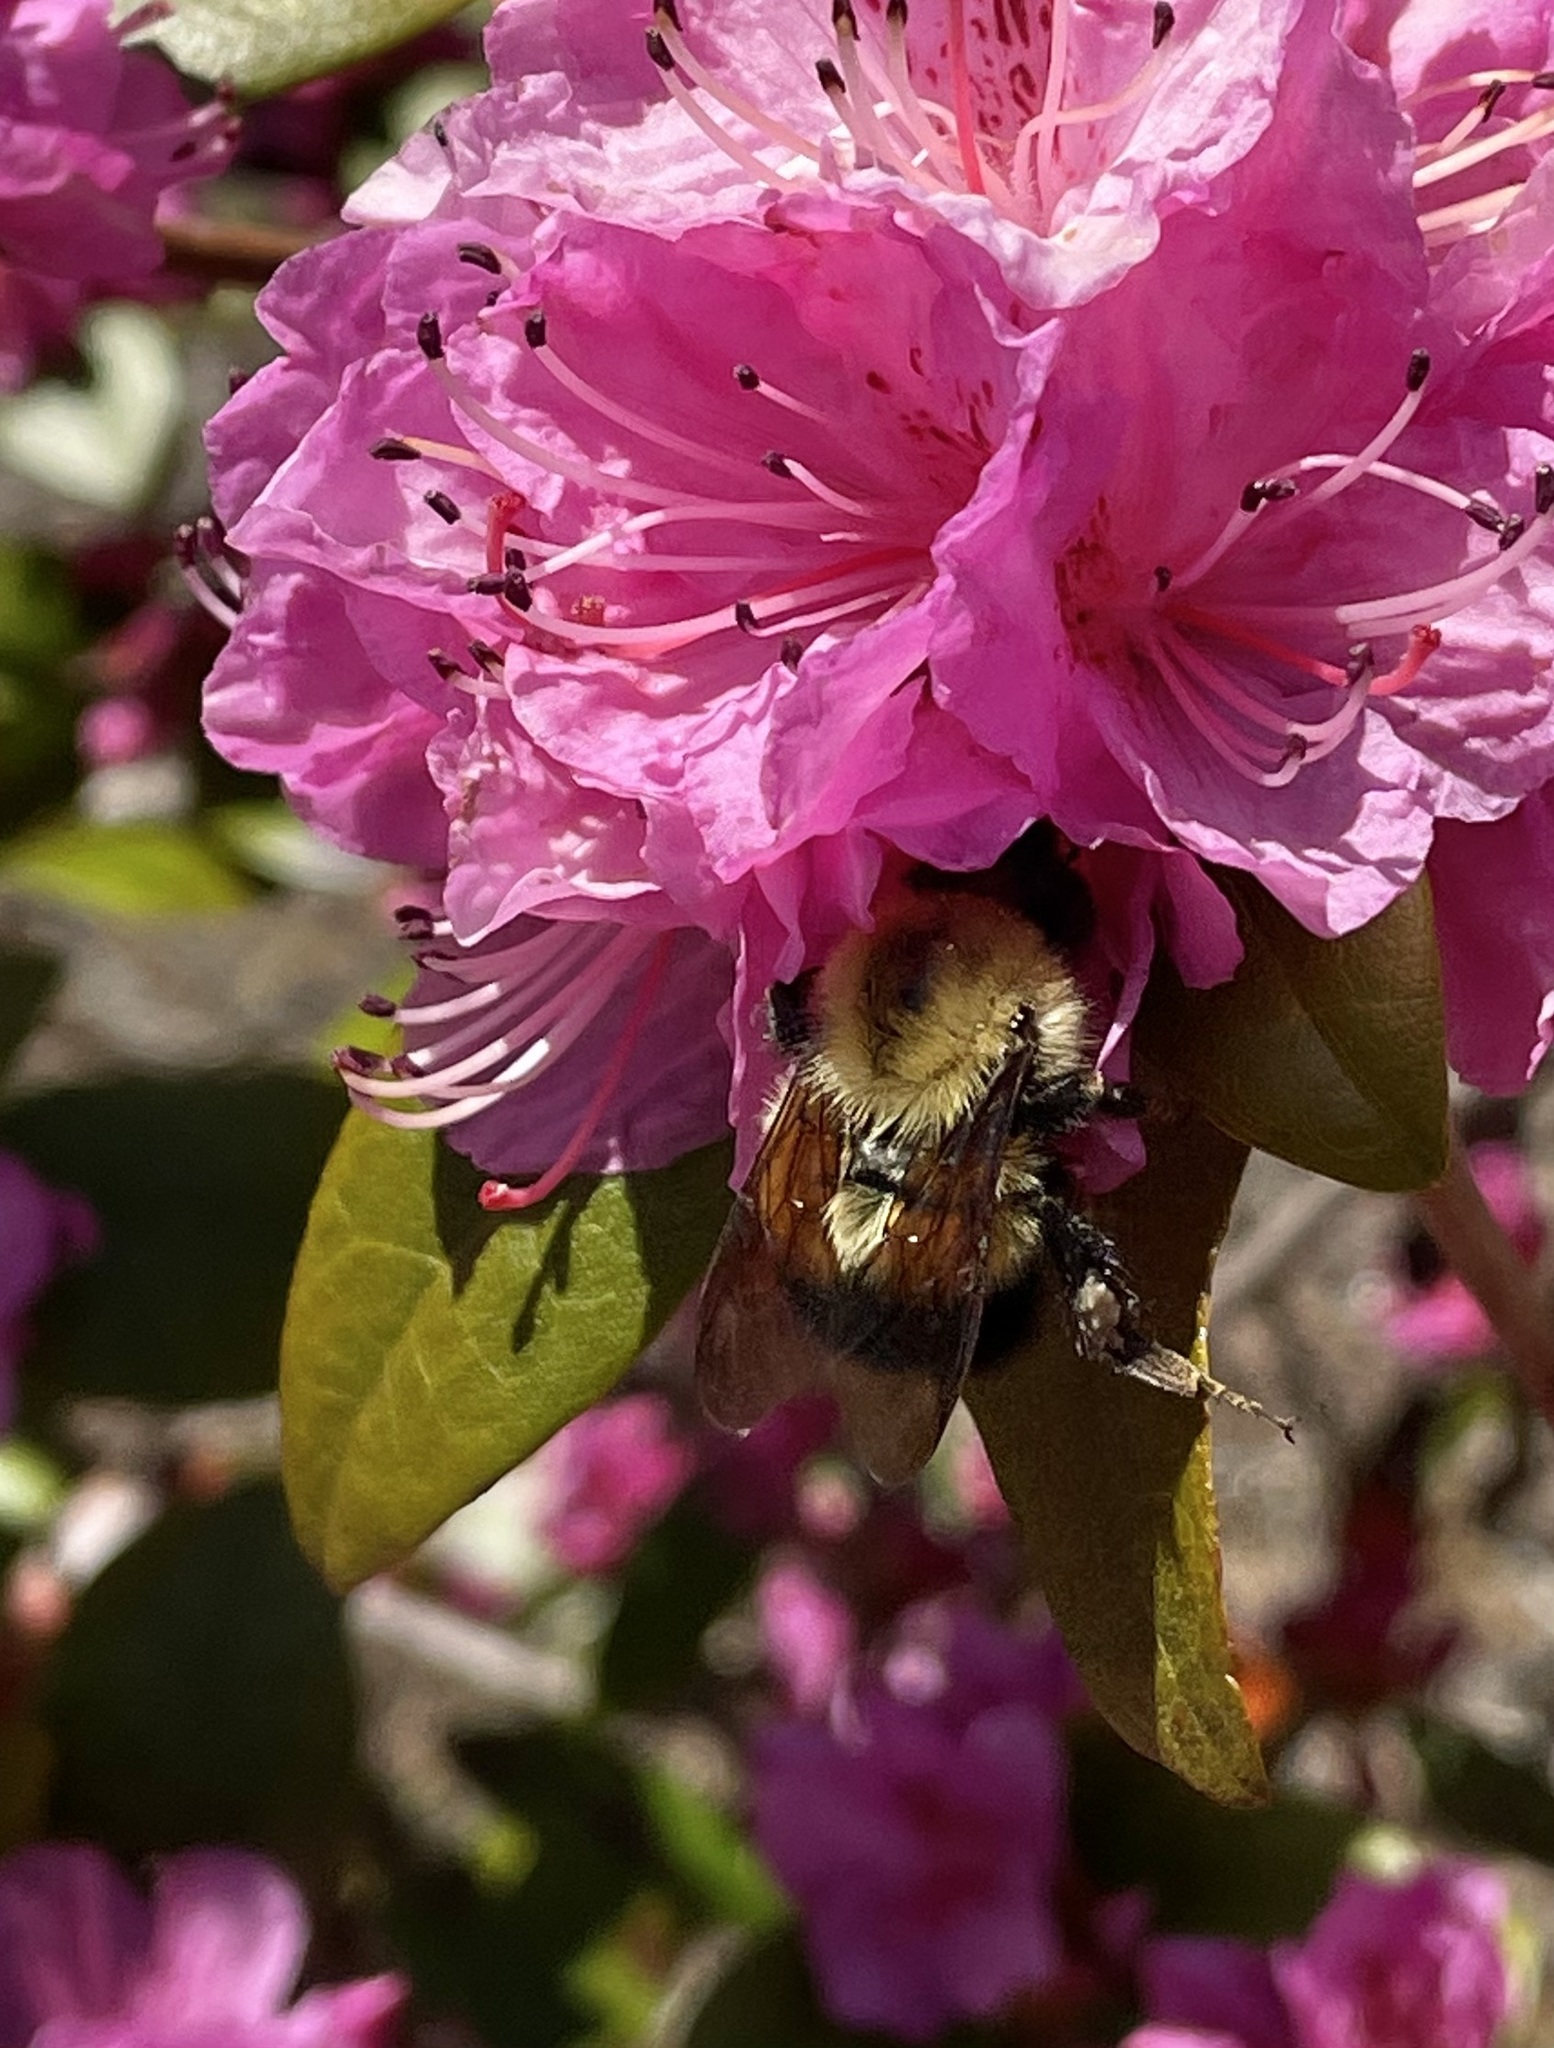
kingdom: Animalia
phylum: Arthropoda
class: Insecta
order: Hymenoptera
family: Apidae
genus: Bombus
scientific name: Bombus perplexus
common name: Confusing bumble bee
